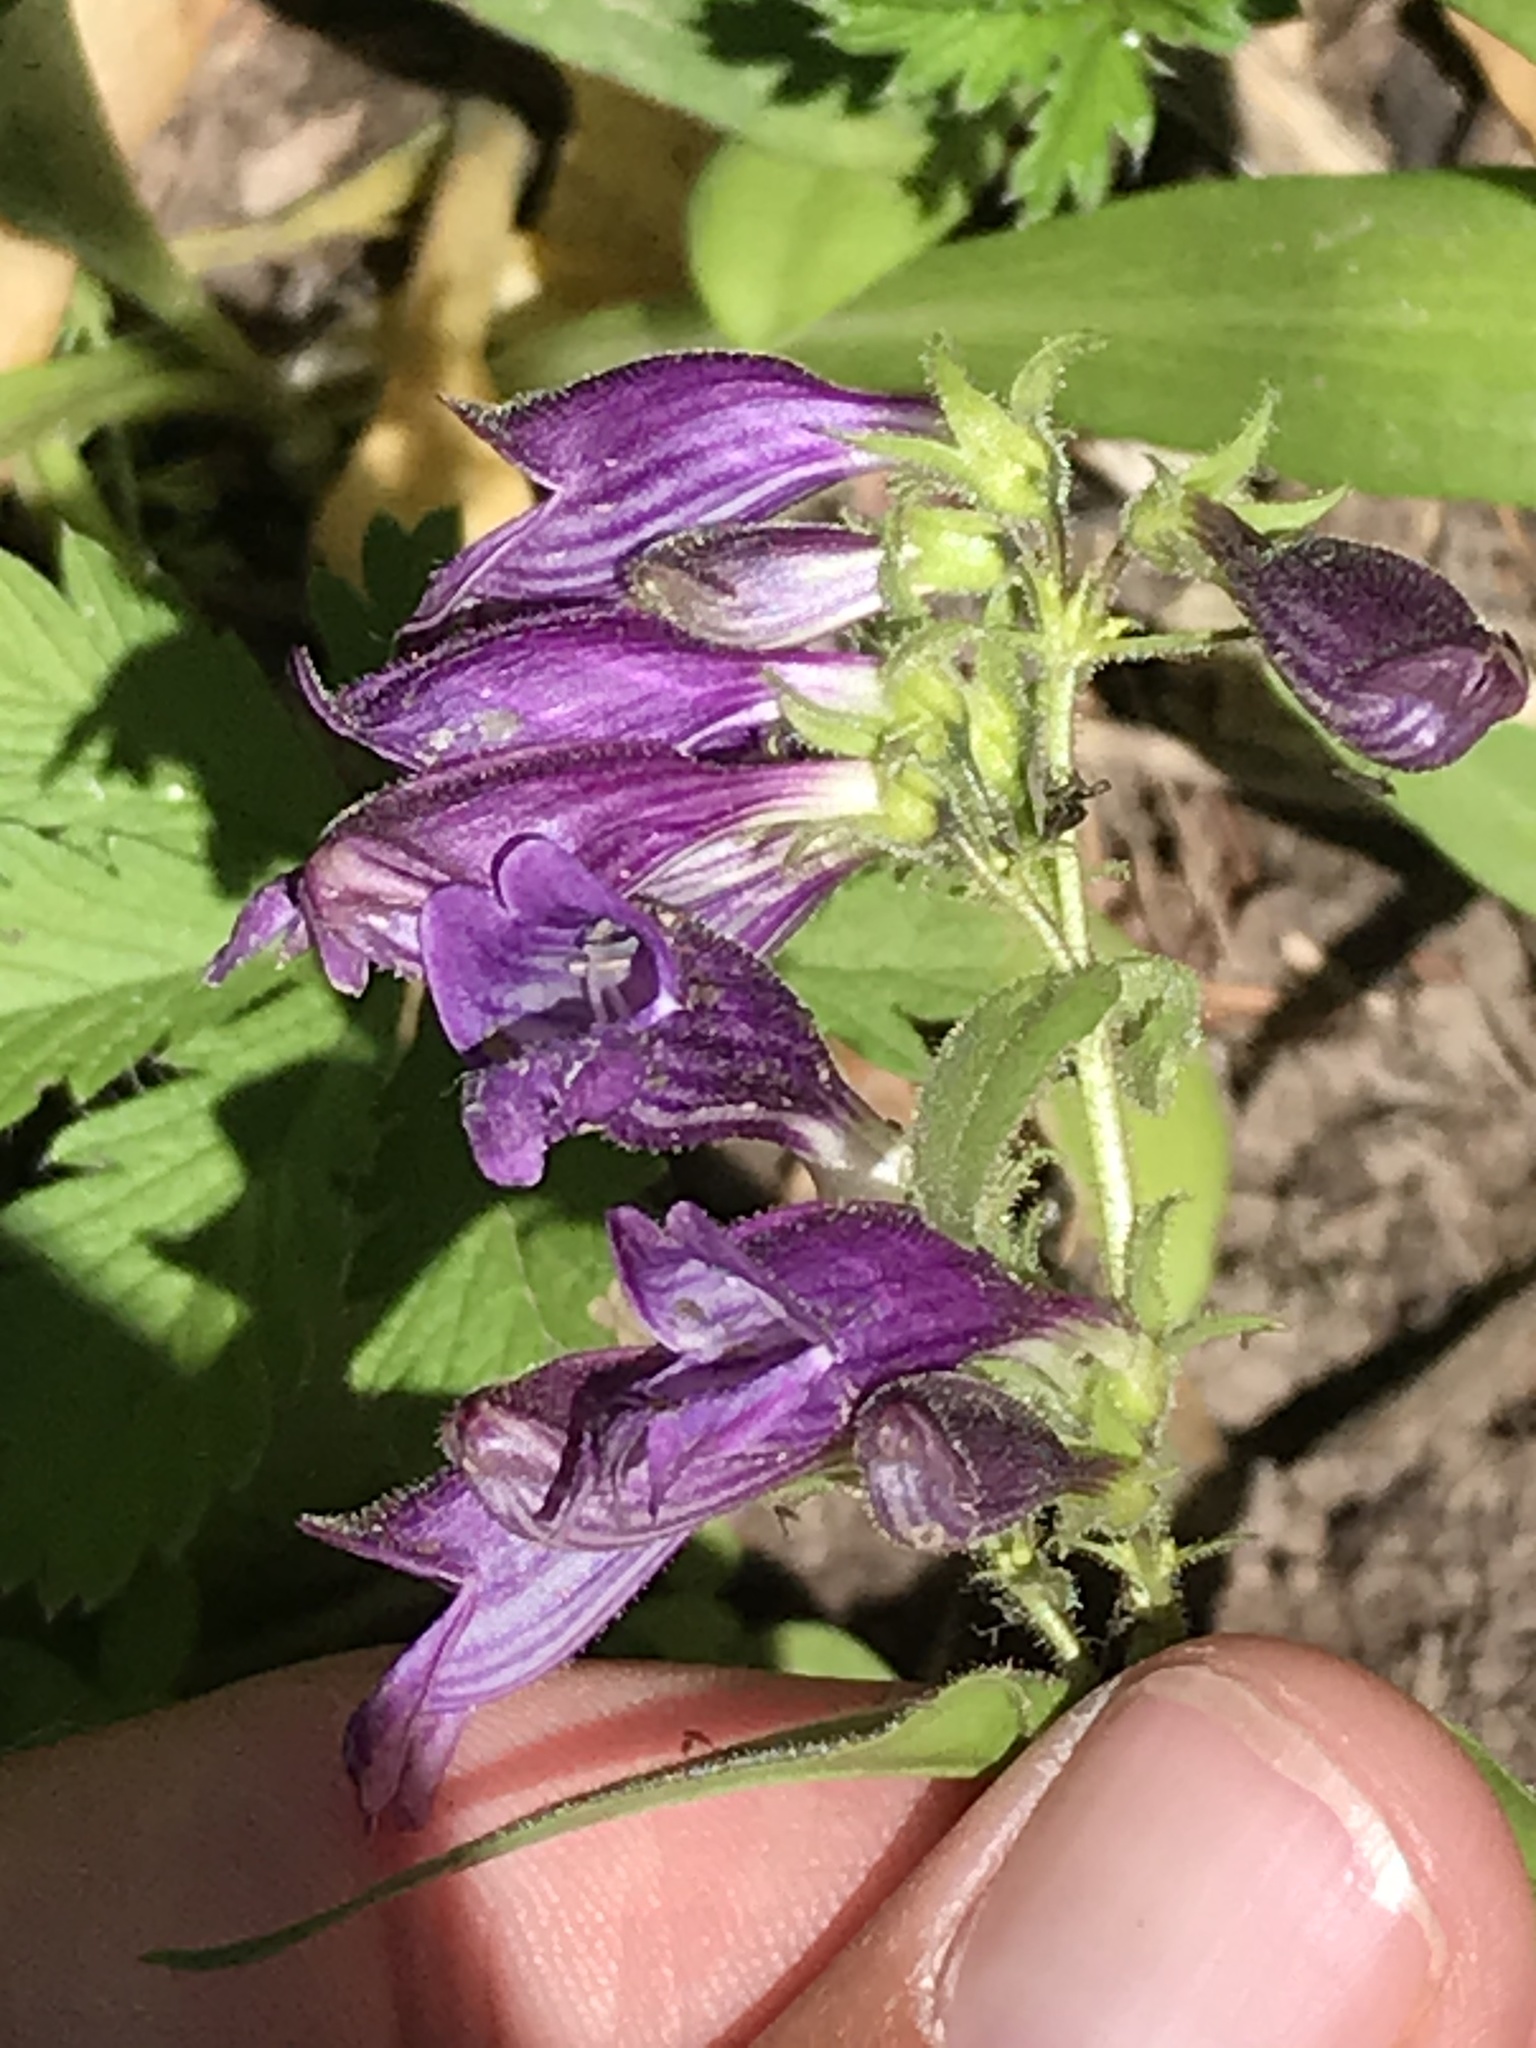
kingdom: Plantae
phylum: Tracheophyta
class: Magnoliopsida
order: Lamiales
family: Plantaginaceae
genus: Penstemon
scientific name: Penstemon whippleanus
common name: Whipple's penstemon
